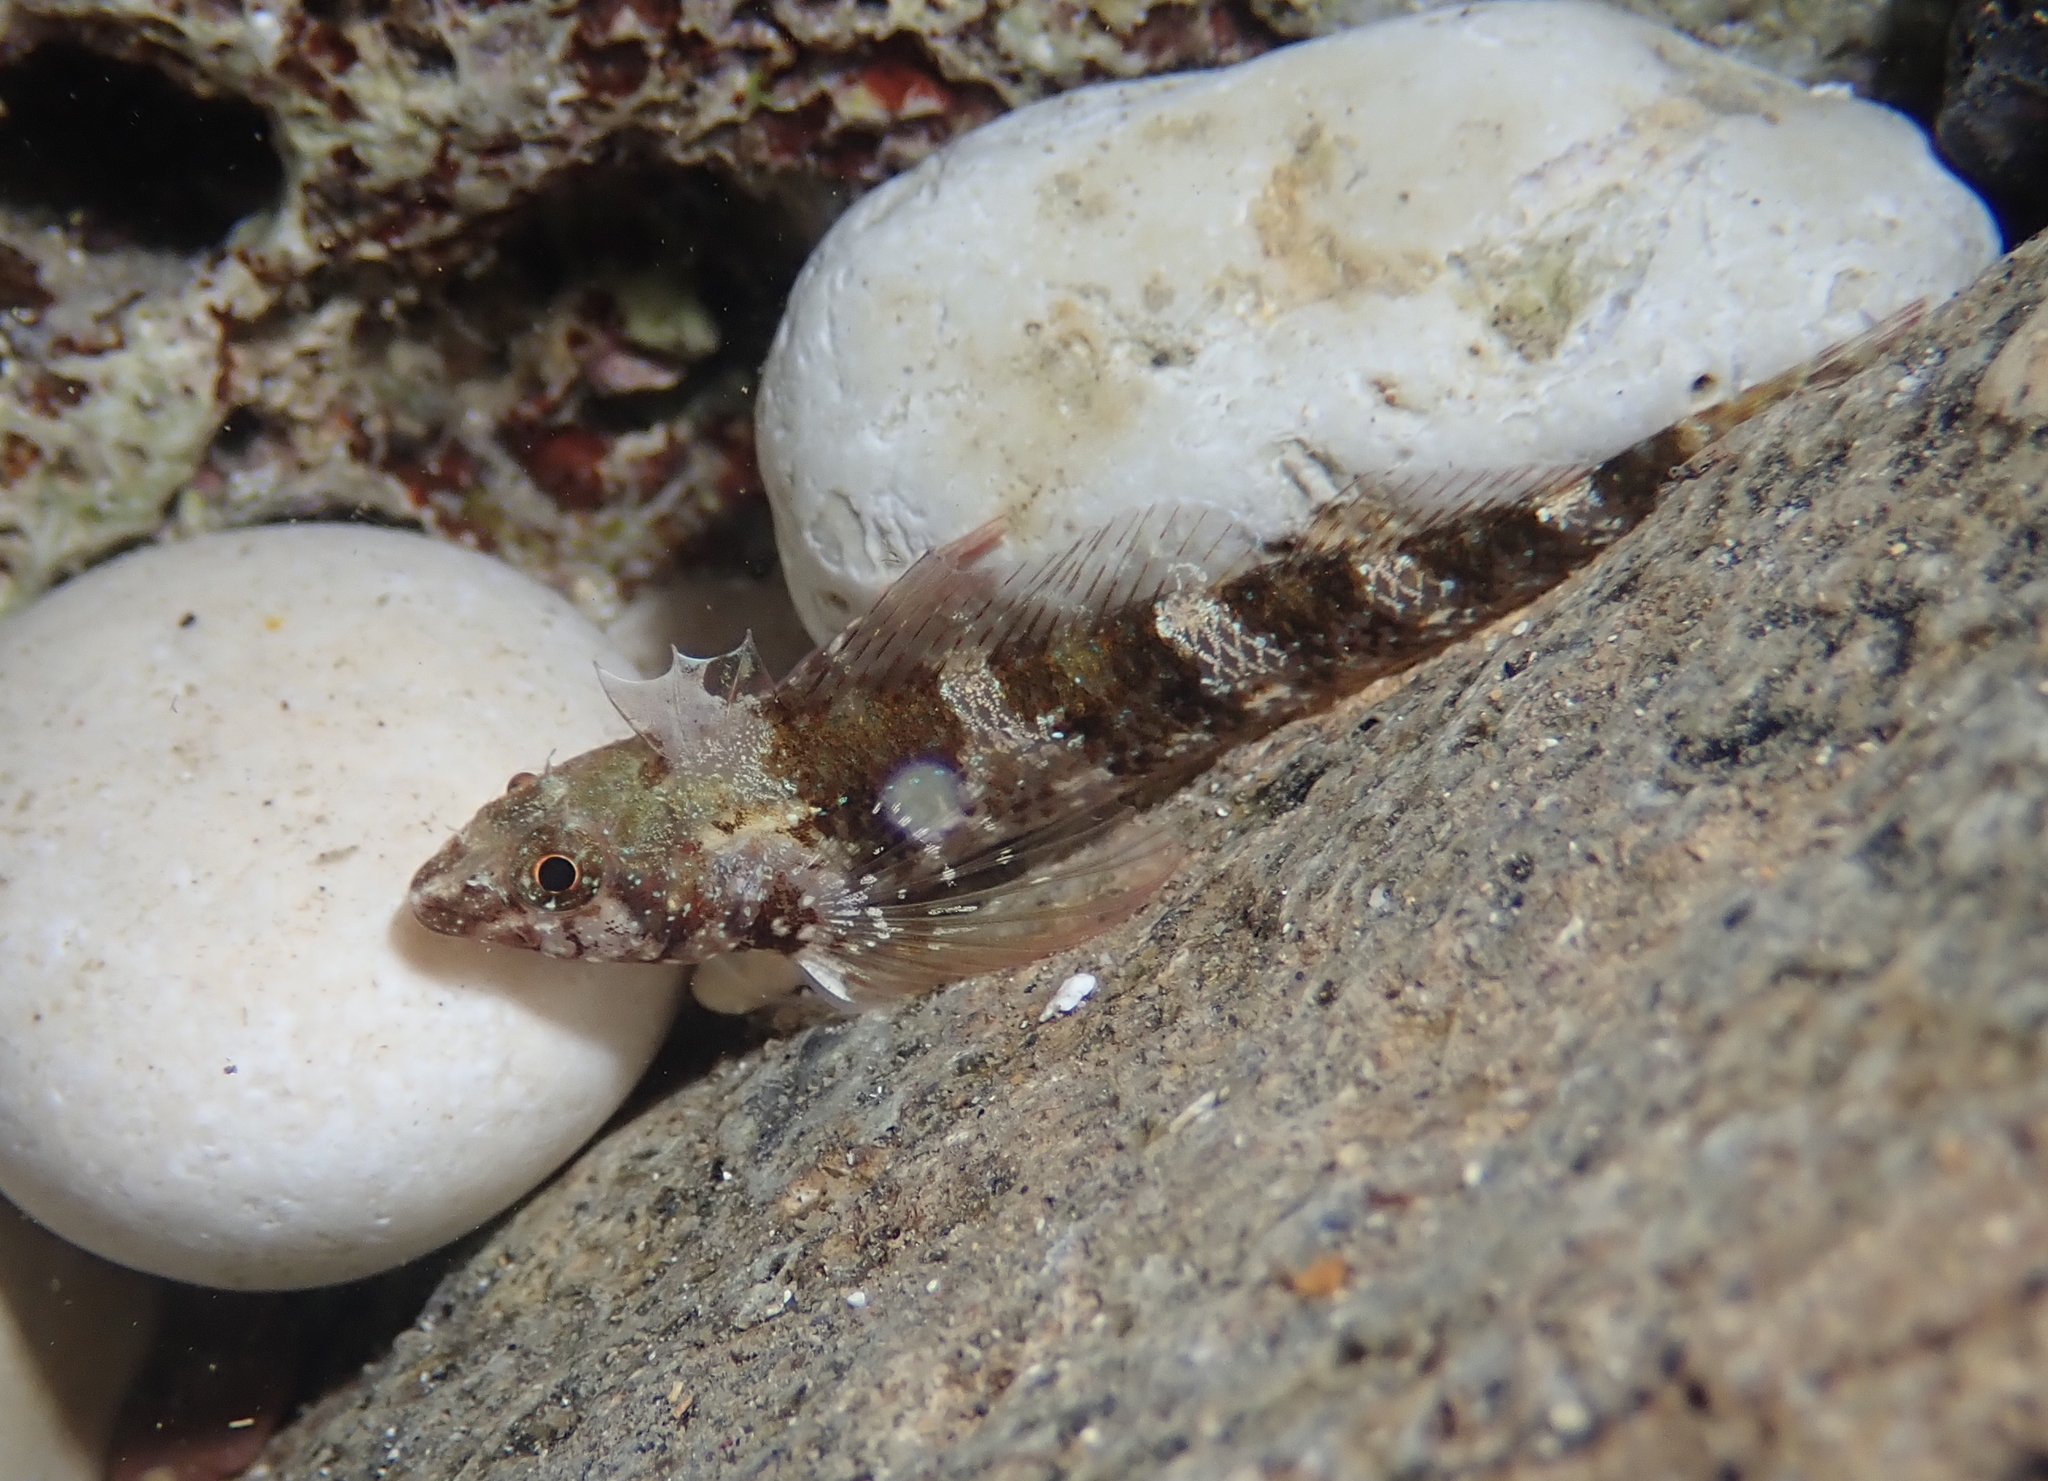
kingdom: Animalia
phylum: Chordata
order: Perciformes
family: Tripterygiidae
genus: Tripterygion
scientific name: Tripterygion tripteronotum
